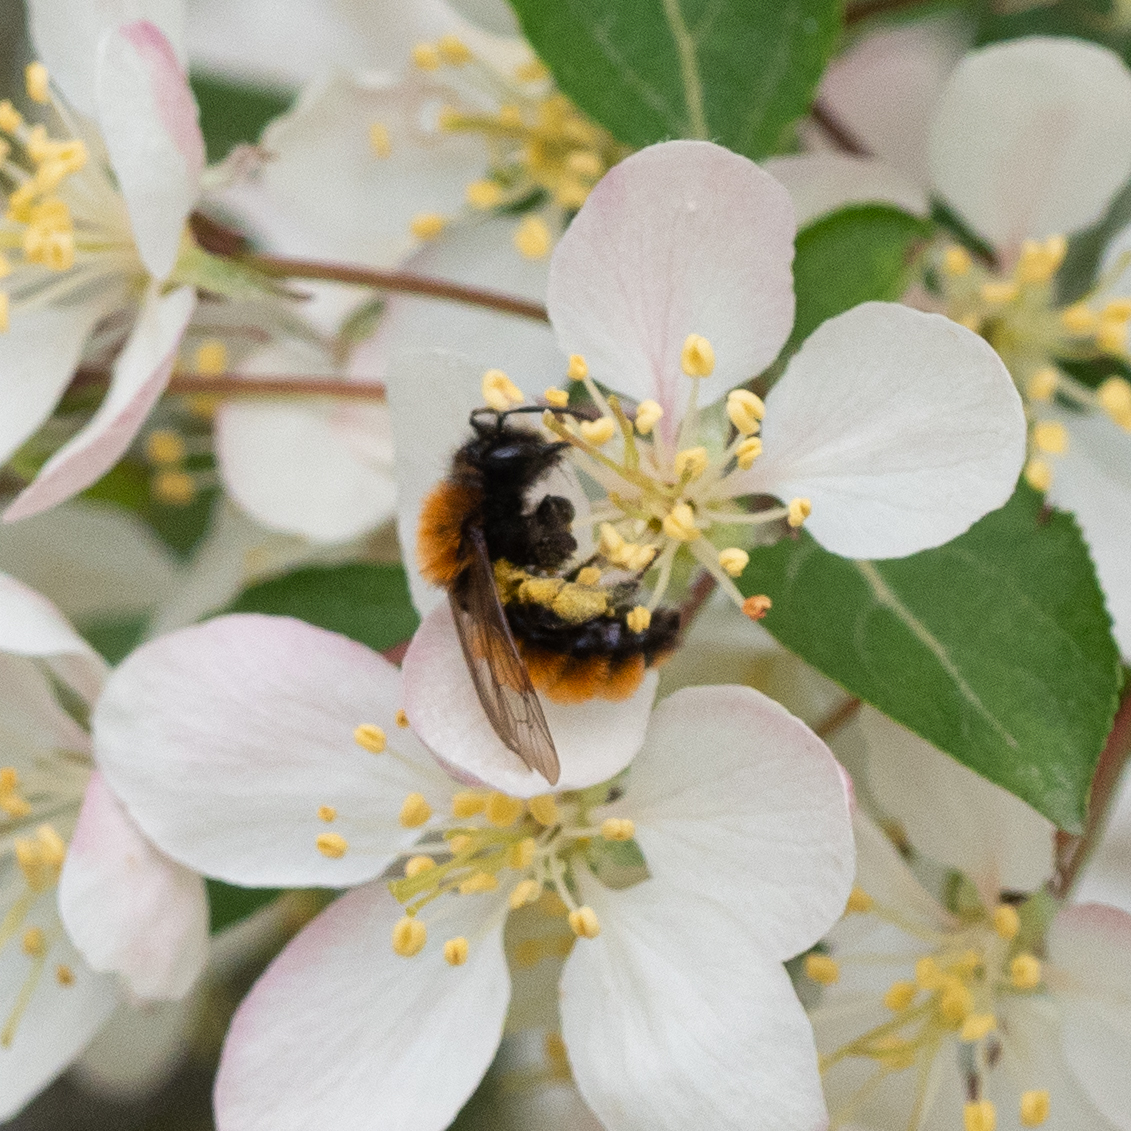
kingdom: Animalia
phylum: Arthropoda
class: Insecta
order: Hymenoptera
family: Andrenidae
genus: Andrena
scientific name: Andrena fulva
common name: Tawny mining bee
